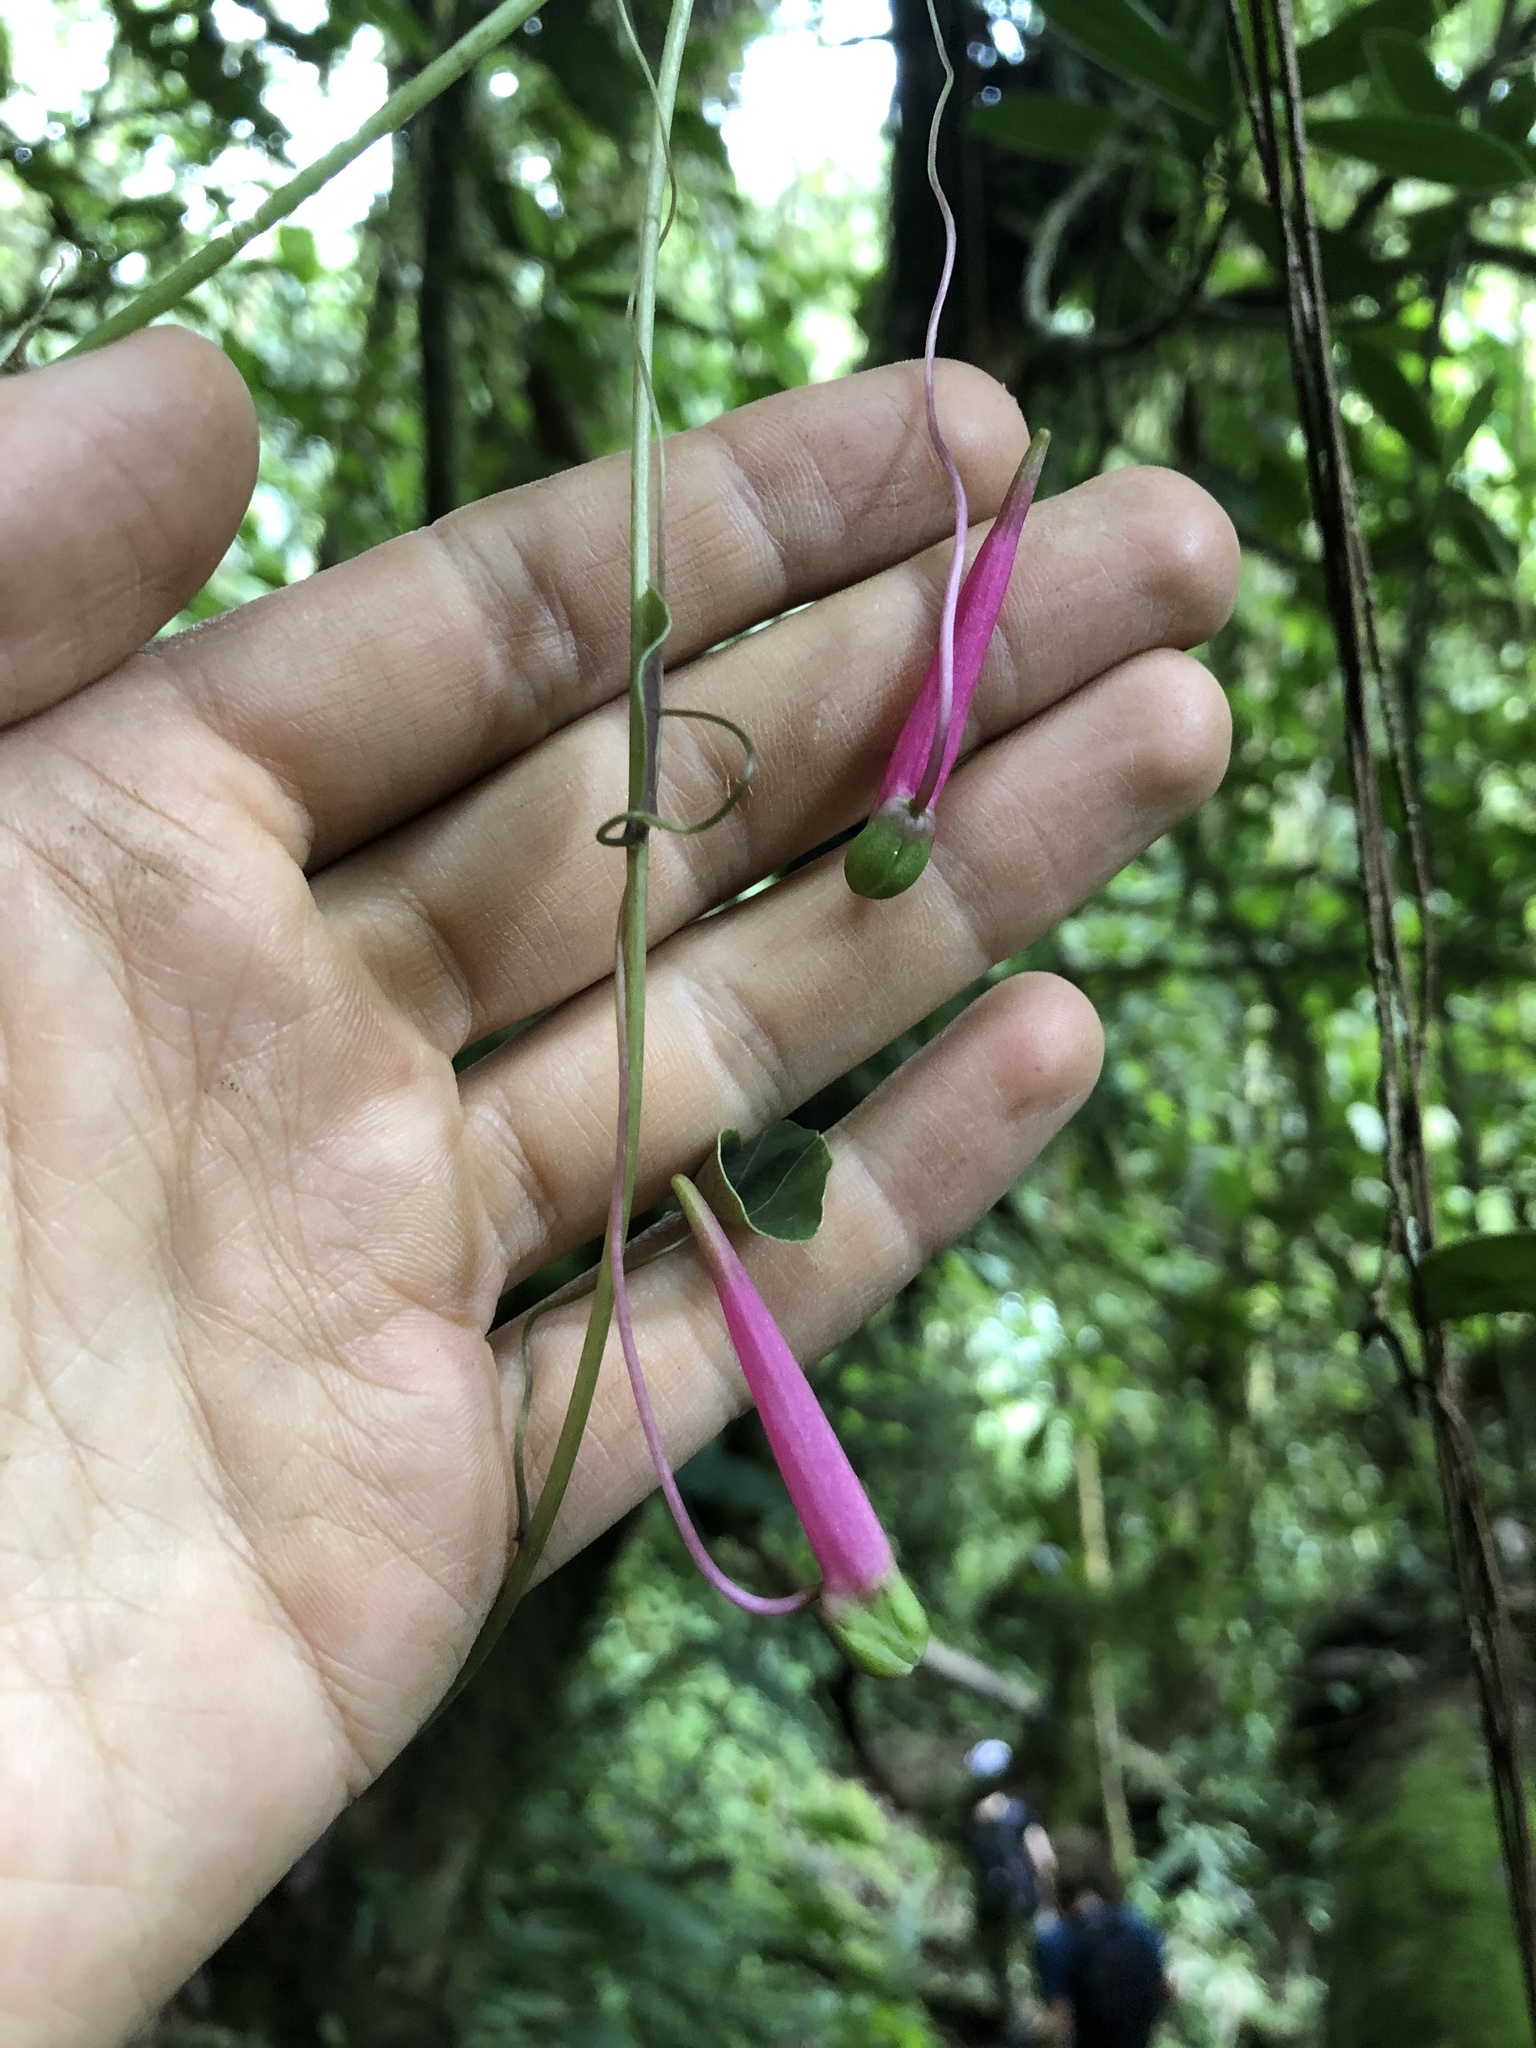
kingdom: Plantae
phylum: Tracheophyta
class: Magnoliopsida
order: Brassicales
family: Tropaeolaceae
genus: Tropaeolum
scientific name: Tropaeolum longifolium
